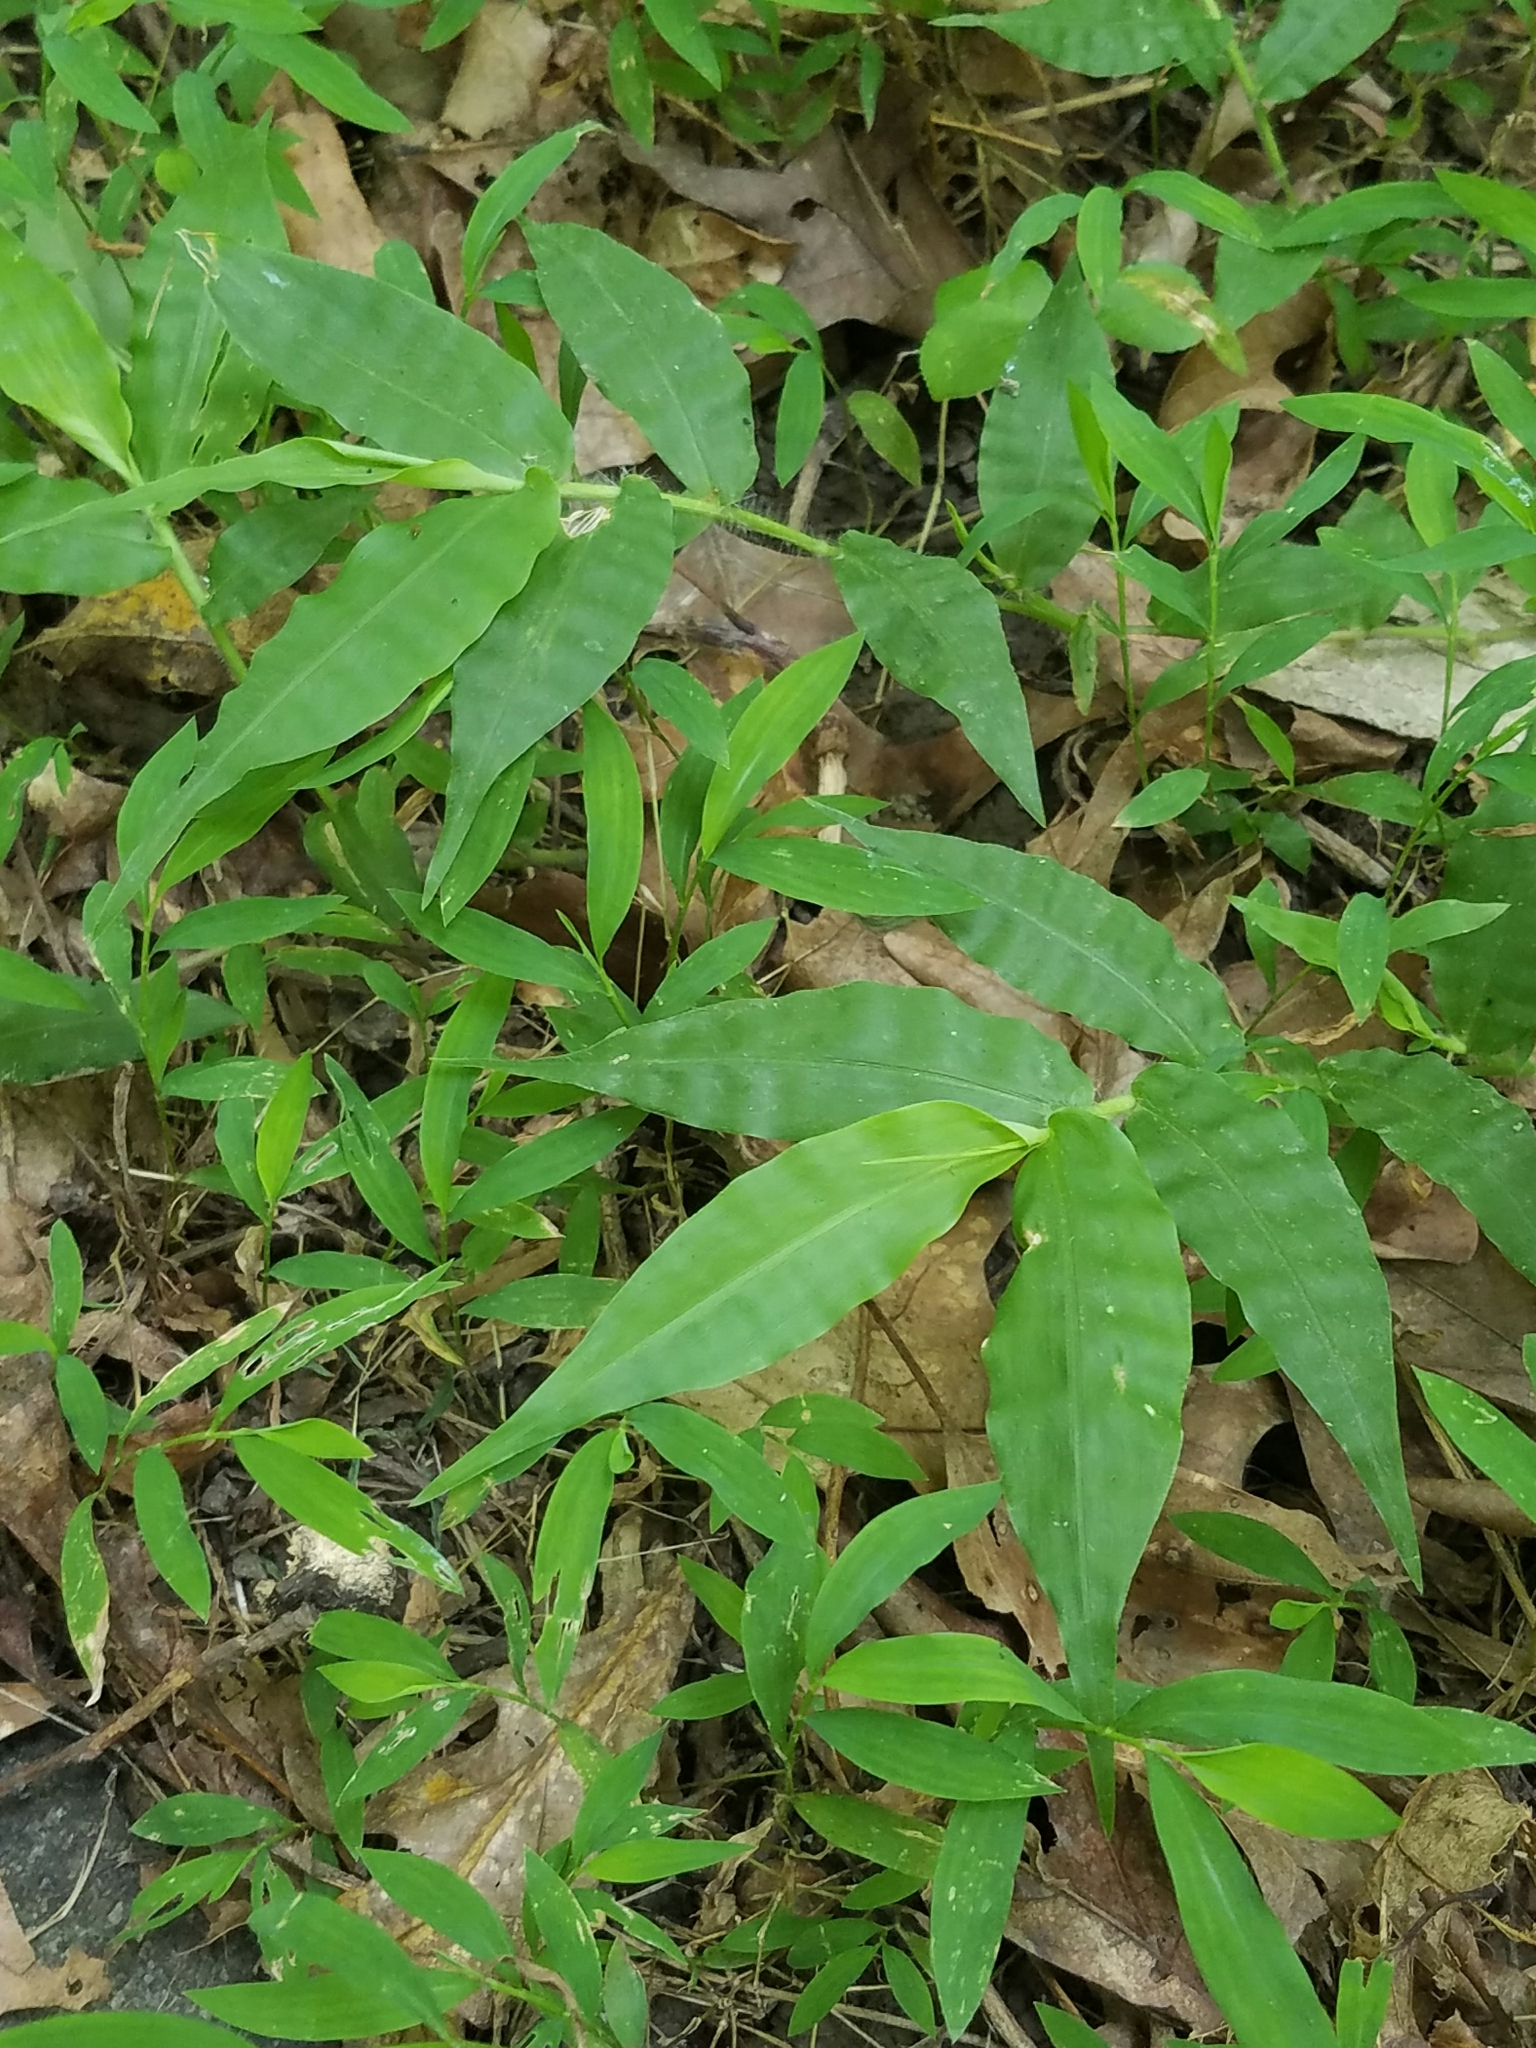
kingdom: Plantae
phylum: Tracheophyta
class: Liliopsida
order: Poales
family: Poaceae
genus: Oplismenus
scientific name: Oplismenus undulatifolius
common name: Wavyleaf basketgrass
